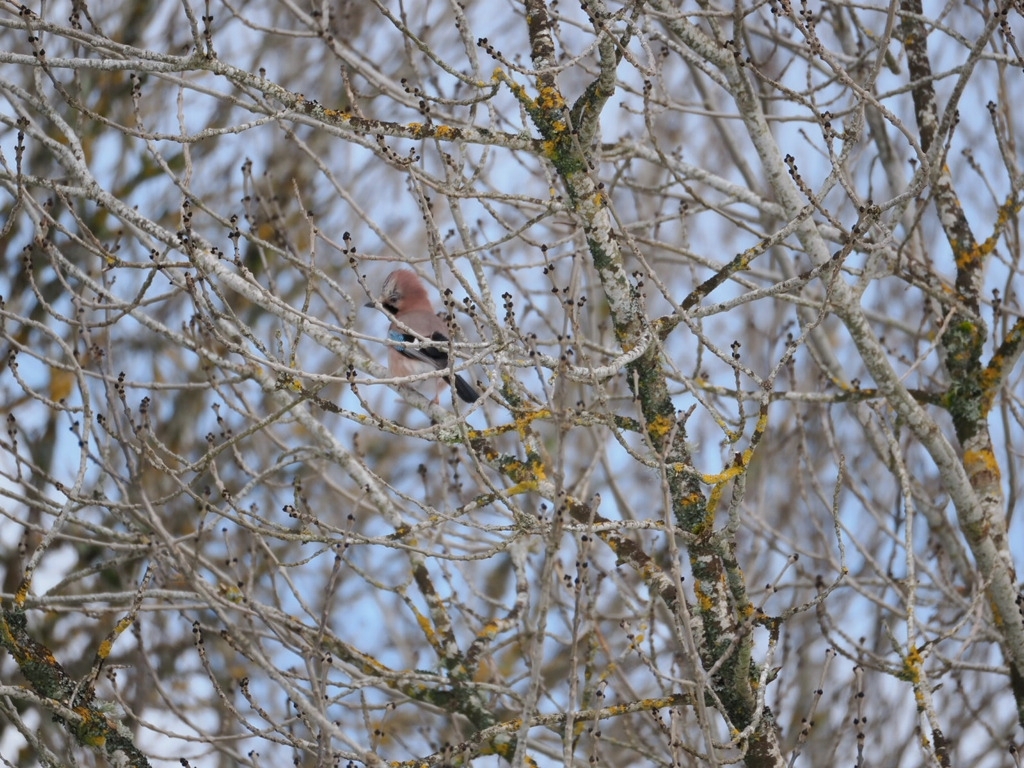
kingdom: Animalia
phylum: Chordata
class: Aves
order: Passeriformes
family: Corvidae
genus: Garrulus
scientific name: Garrulus glandarius
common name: Eurasian jay
